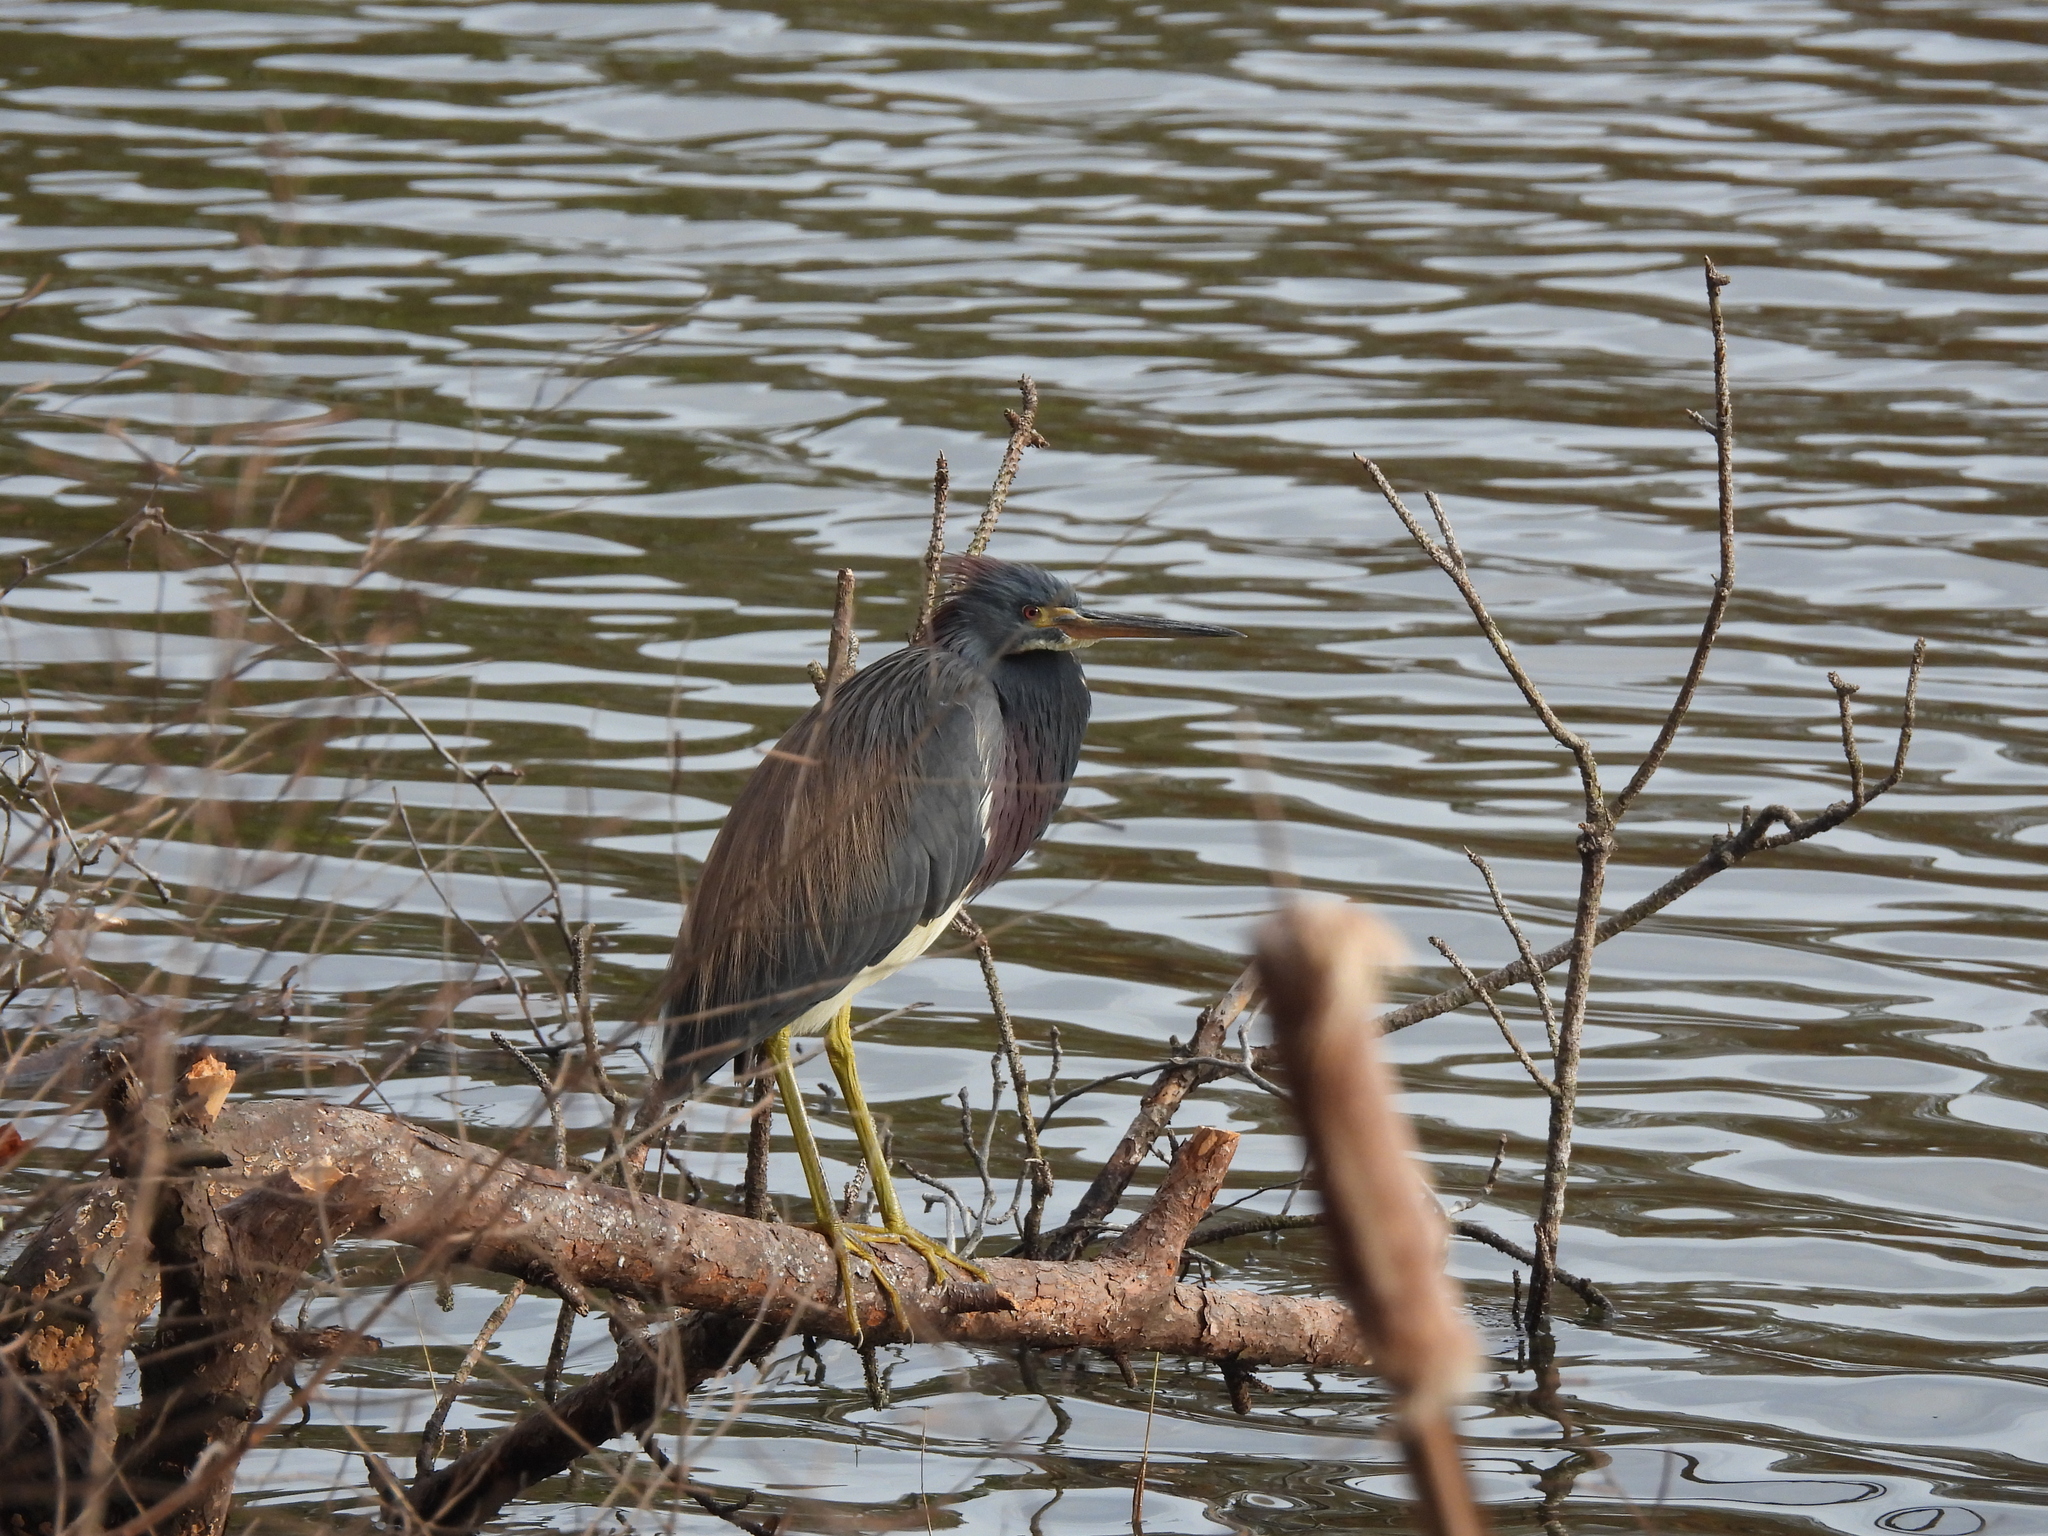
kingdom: Animalia
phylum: Chordata
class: Aves
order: Pelecaniformes
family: Ardeidae
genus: Egretta
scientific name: Egretta tricolor
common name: Tricolored heron
